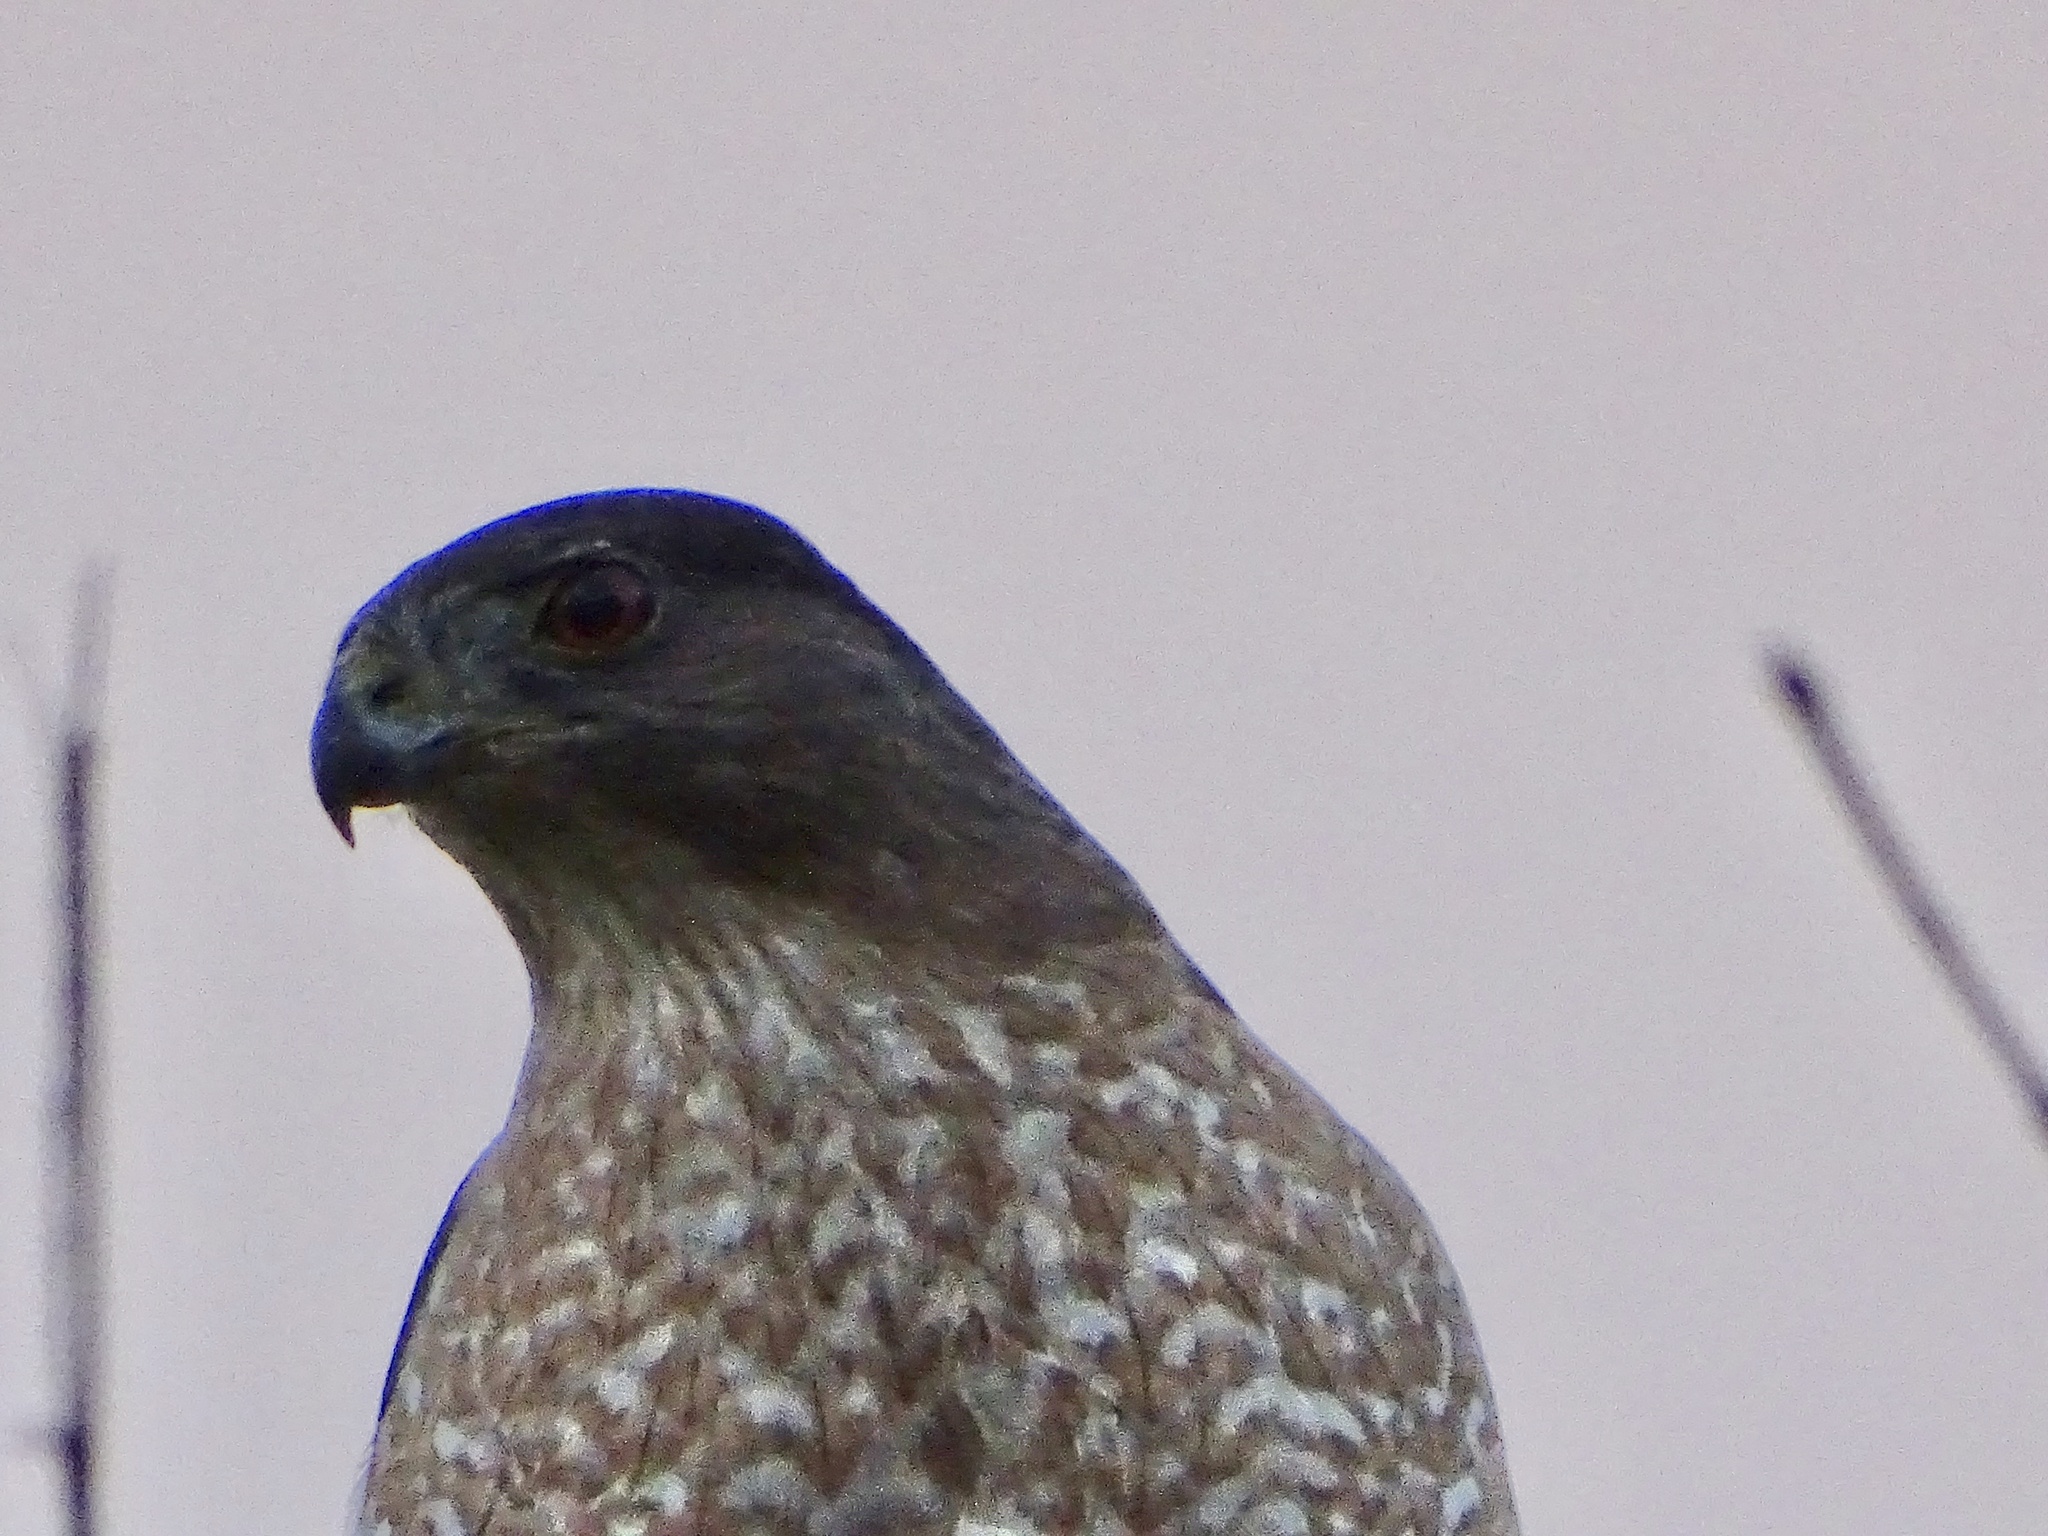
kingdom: Animalia
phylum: Chordata
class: Aves
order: Accipitriformes
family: Accipitridae
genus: Accipiter
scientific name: Accipiter cooperii
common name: Cooper's hawk
